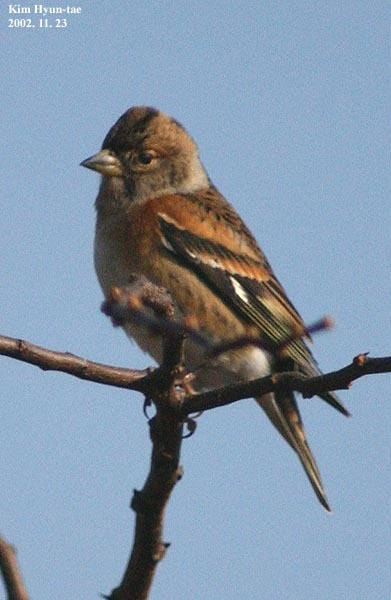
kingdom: Animalia
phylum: Chordata
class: Aves
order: Passeriformes
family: Fringillidae
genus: Fringilla
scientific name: Fringilla montifringilla
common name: Brambling
